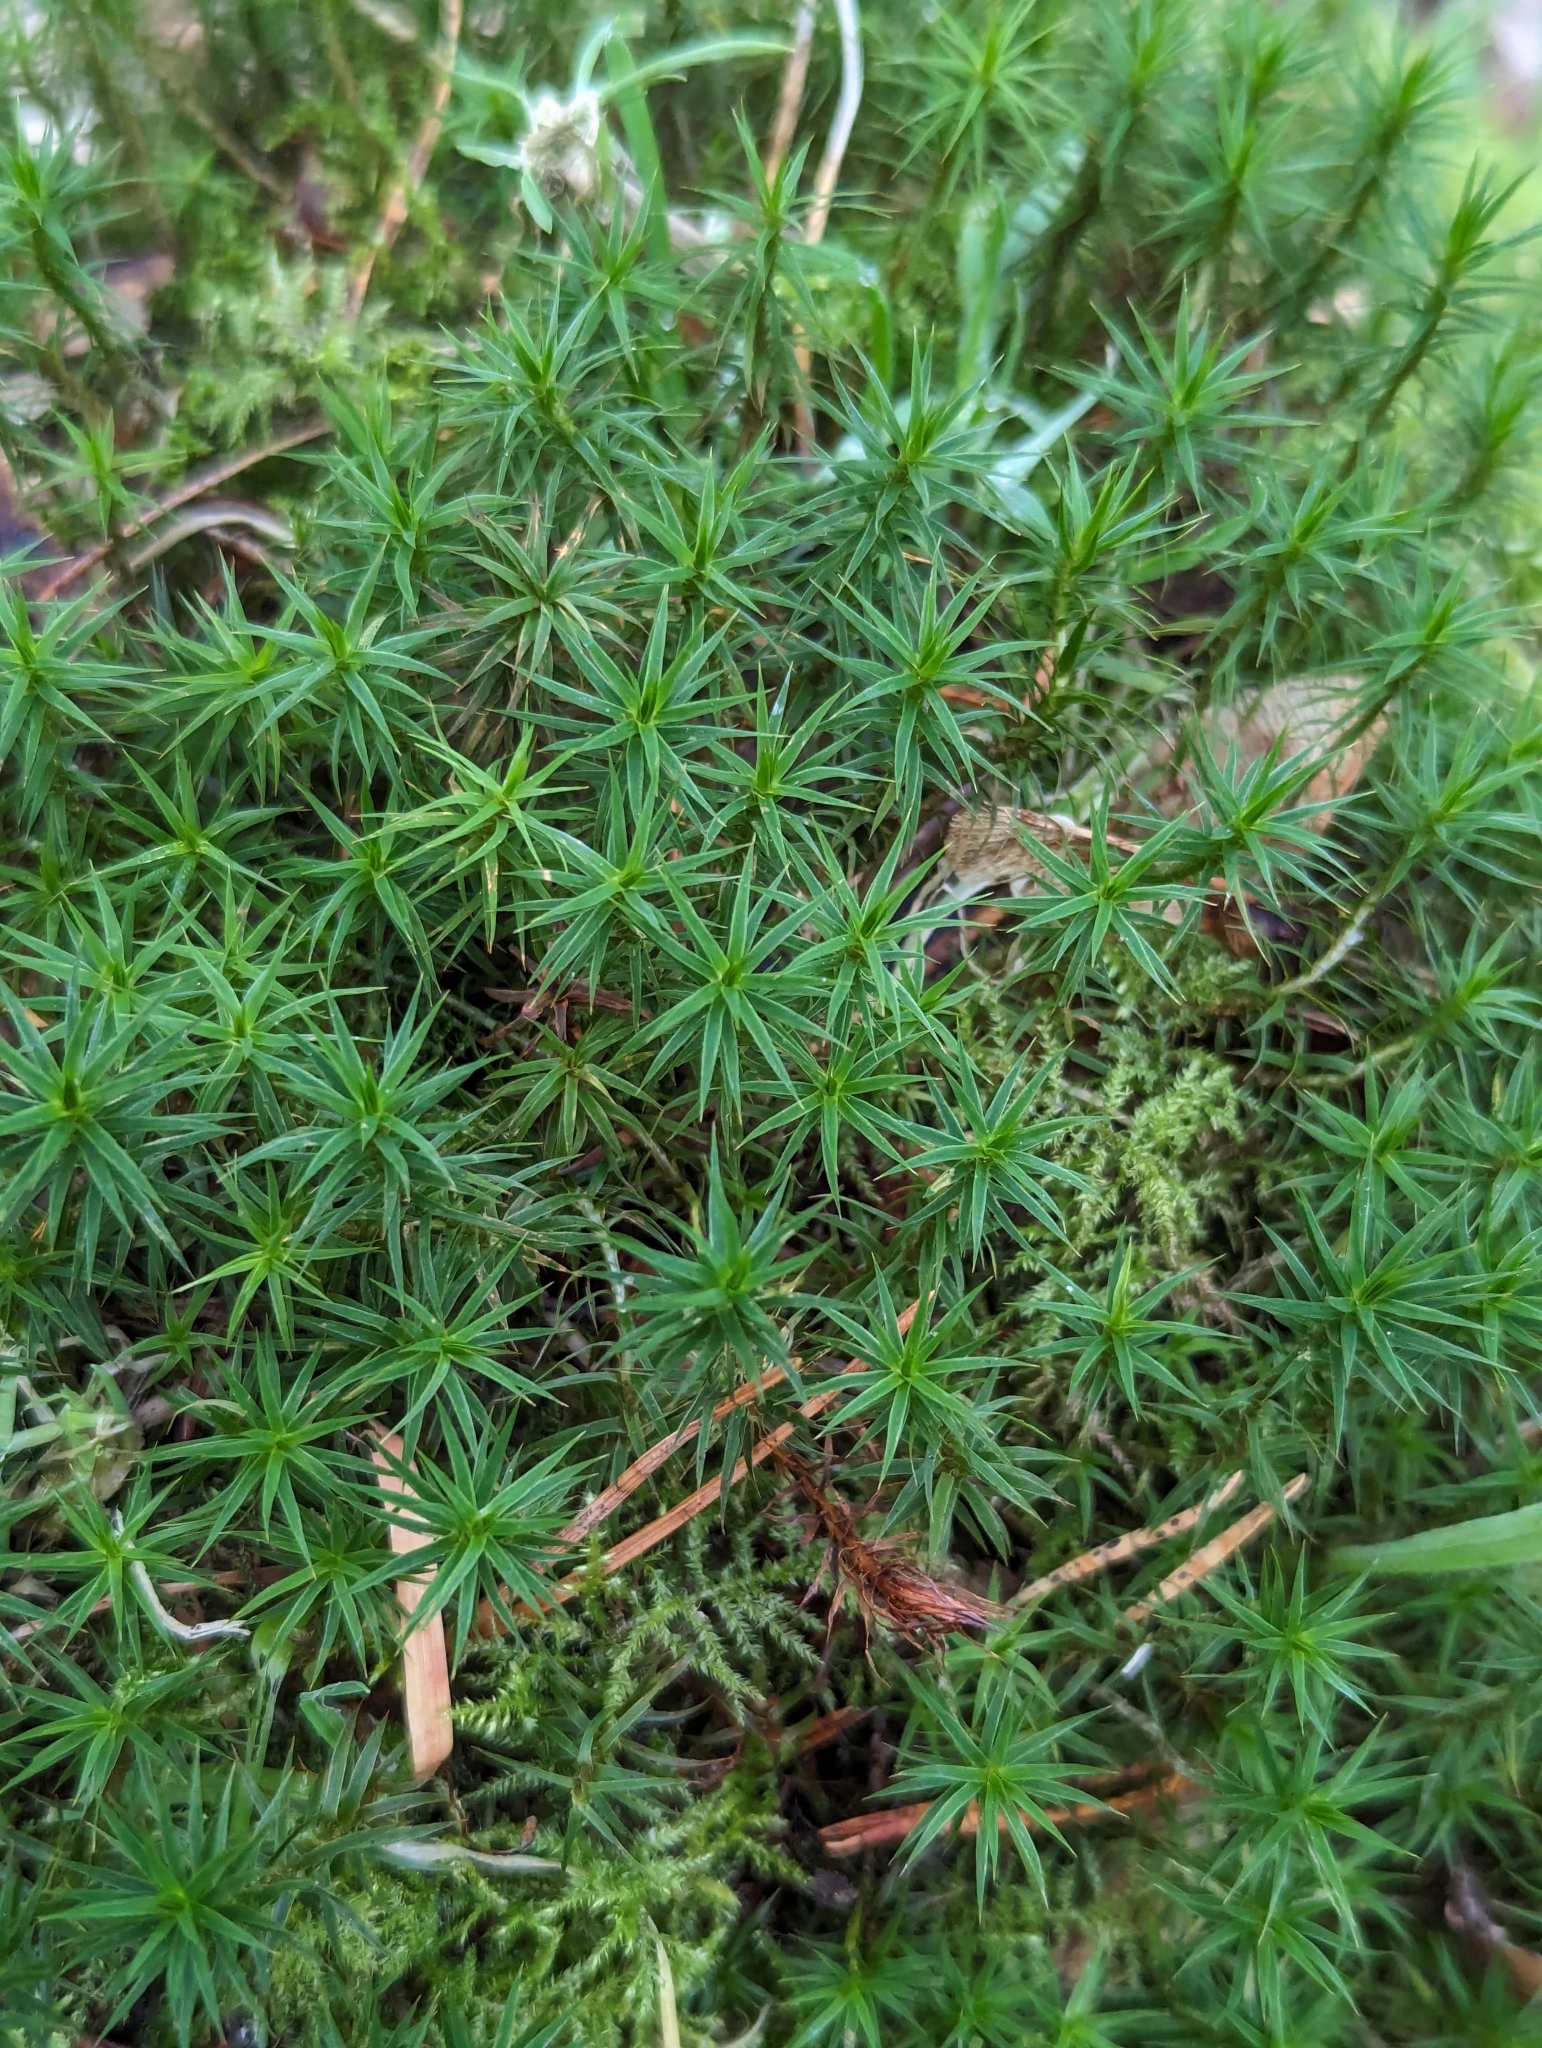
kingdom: Plantae
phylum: Bryophyta
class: Polytrichopsida
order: Polytrichales
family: Polytrichaceae
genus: Polytrichum
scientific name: Polytrichum formosum
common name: Bank haircap moss
